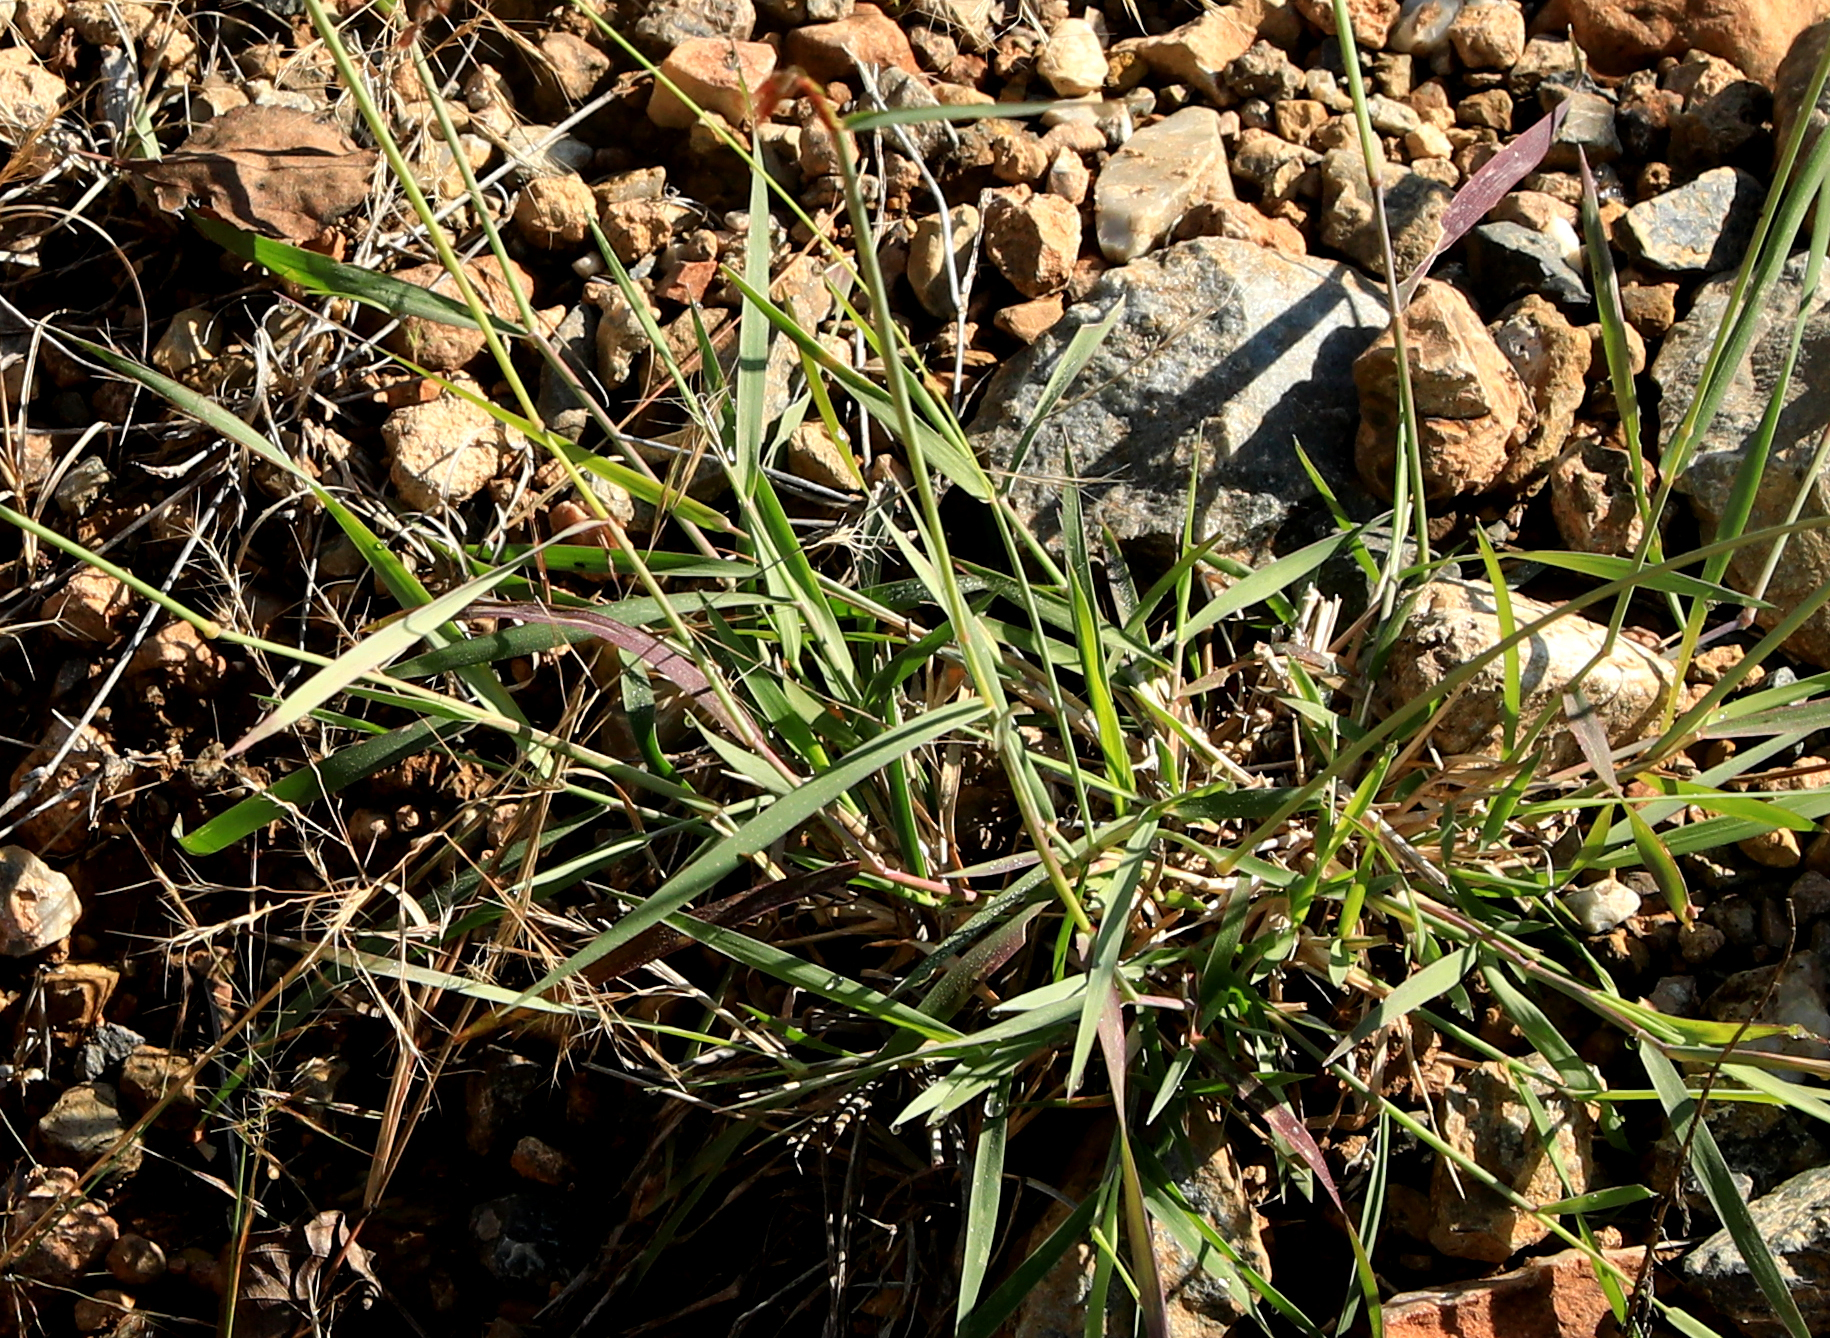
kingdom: Plantae
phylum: Tracheophyta
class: Liliopsida
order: Poales
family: Poaceae
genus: Melinis
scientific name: Melinis repens
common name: Rose natal grass
